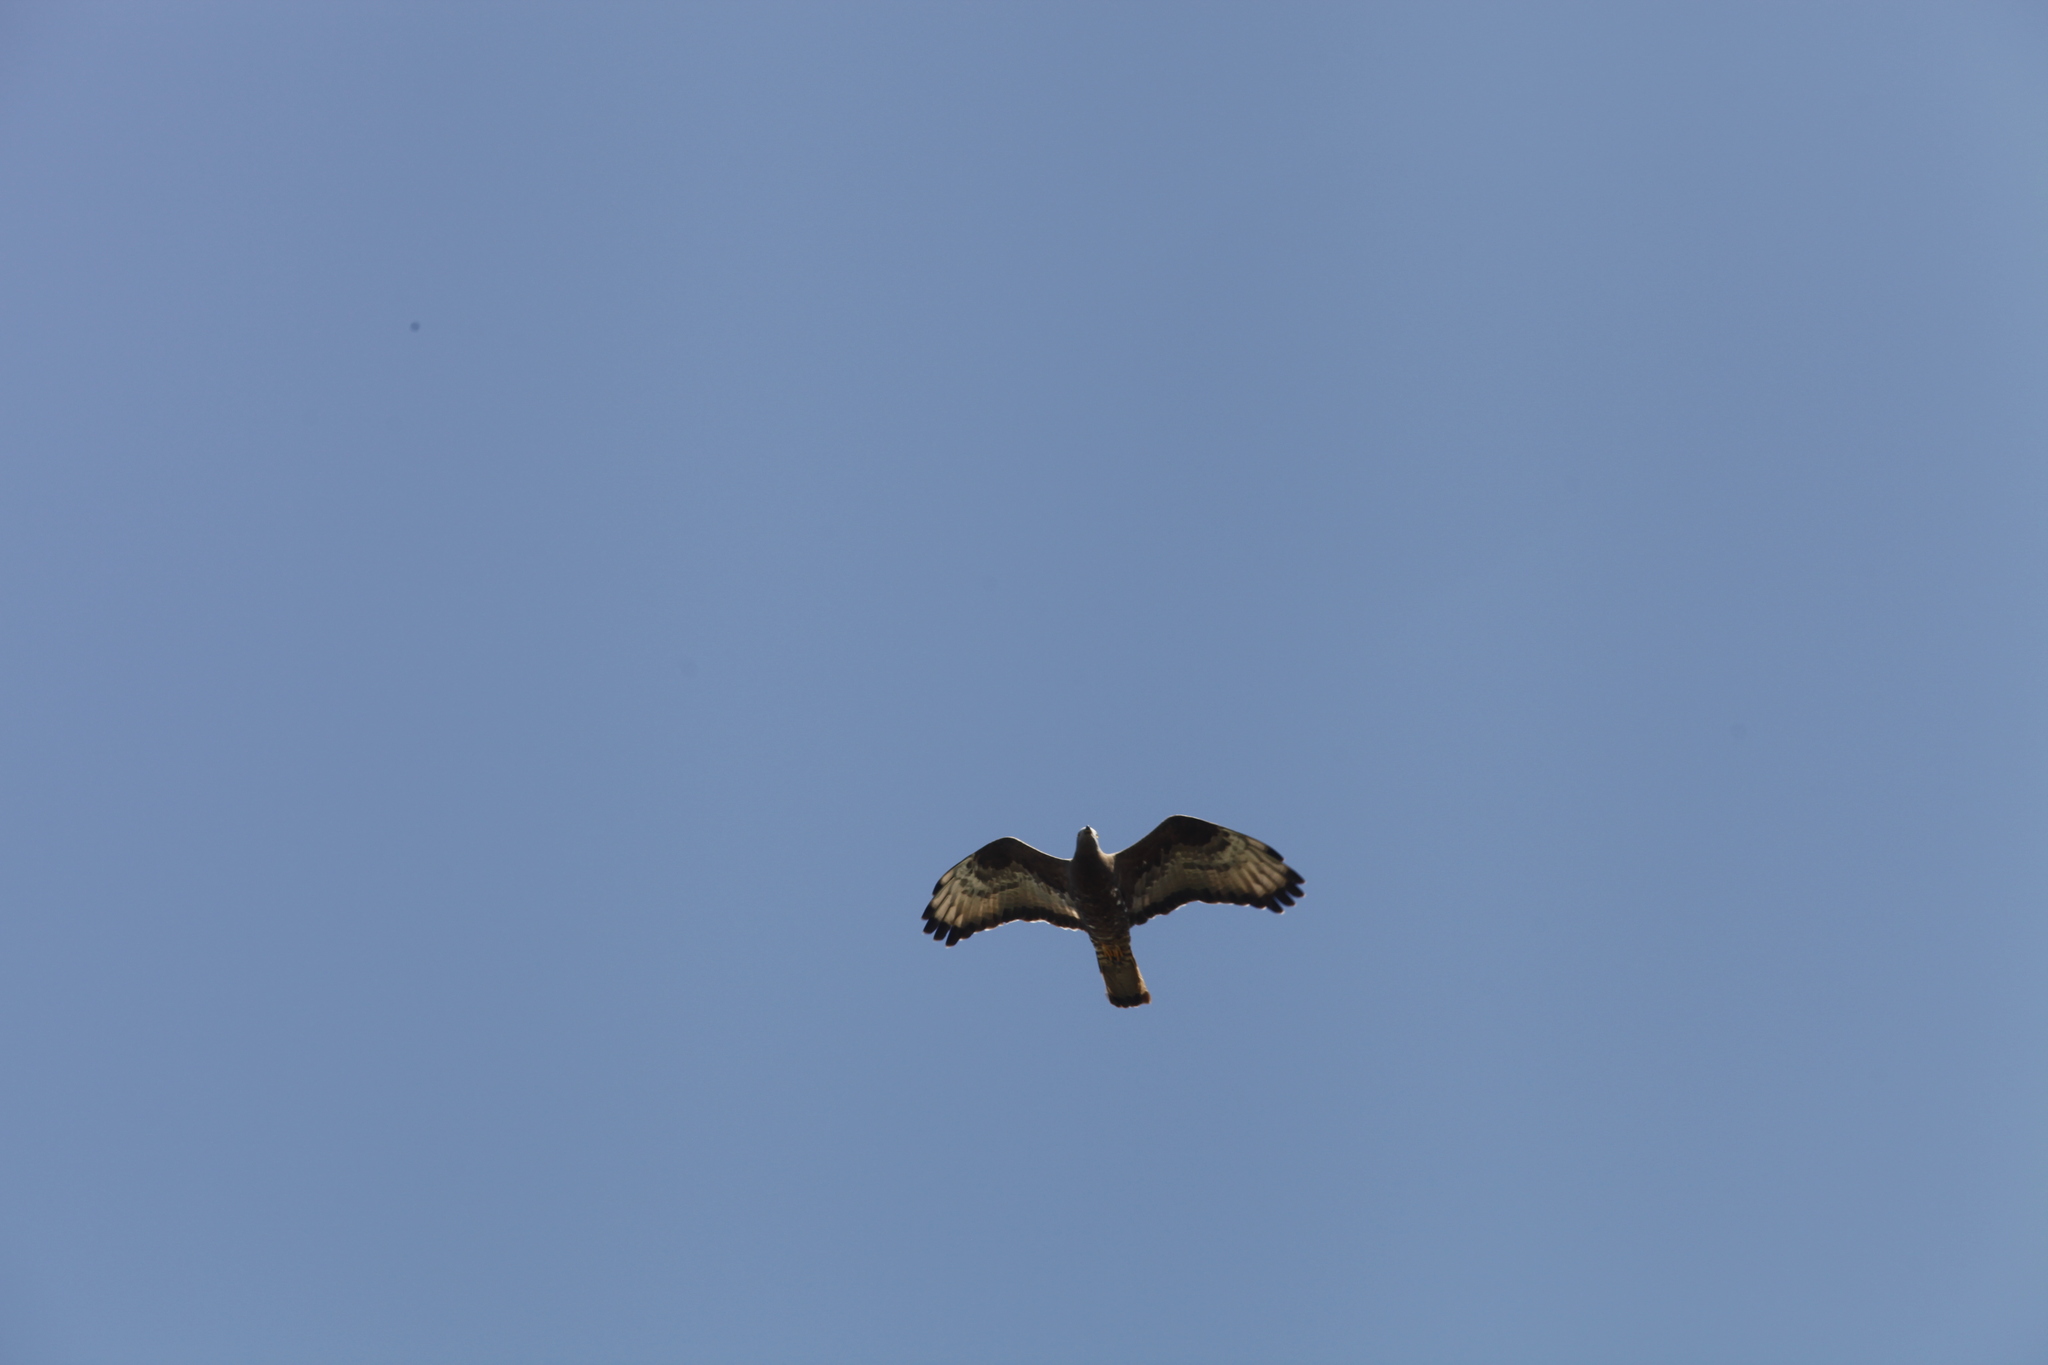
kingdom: Animalia
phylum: Chordata
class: Aves
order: Accipitriformes
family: Accipitridae
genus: Pernis
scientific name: Pernis apivorus
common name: European honey buzzard
